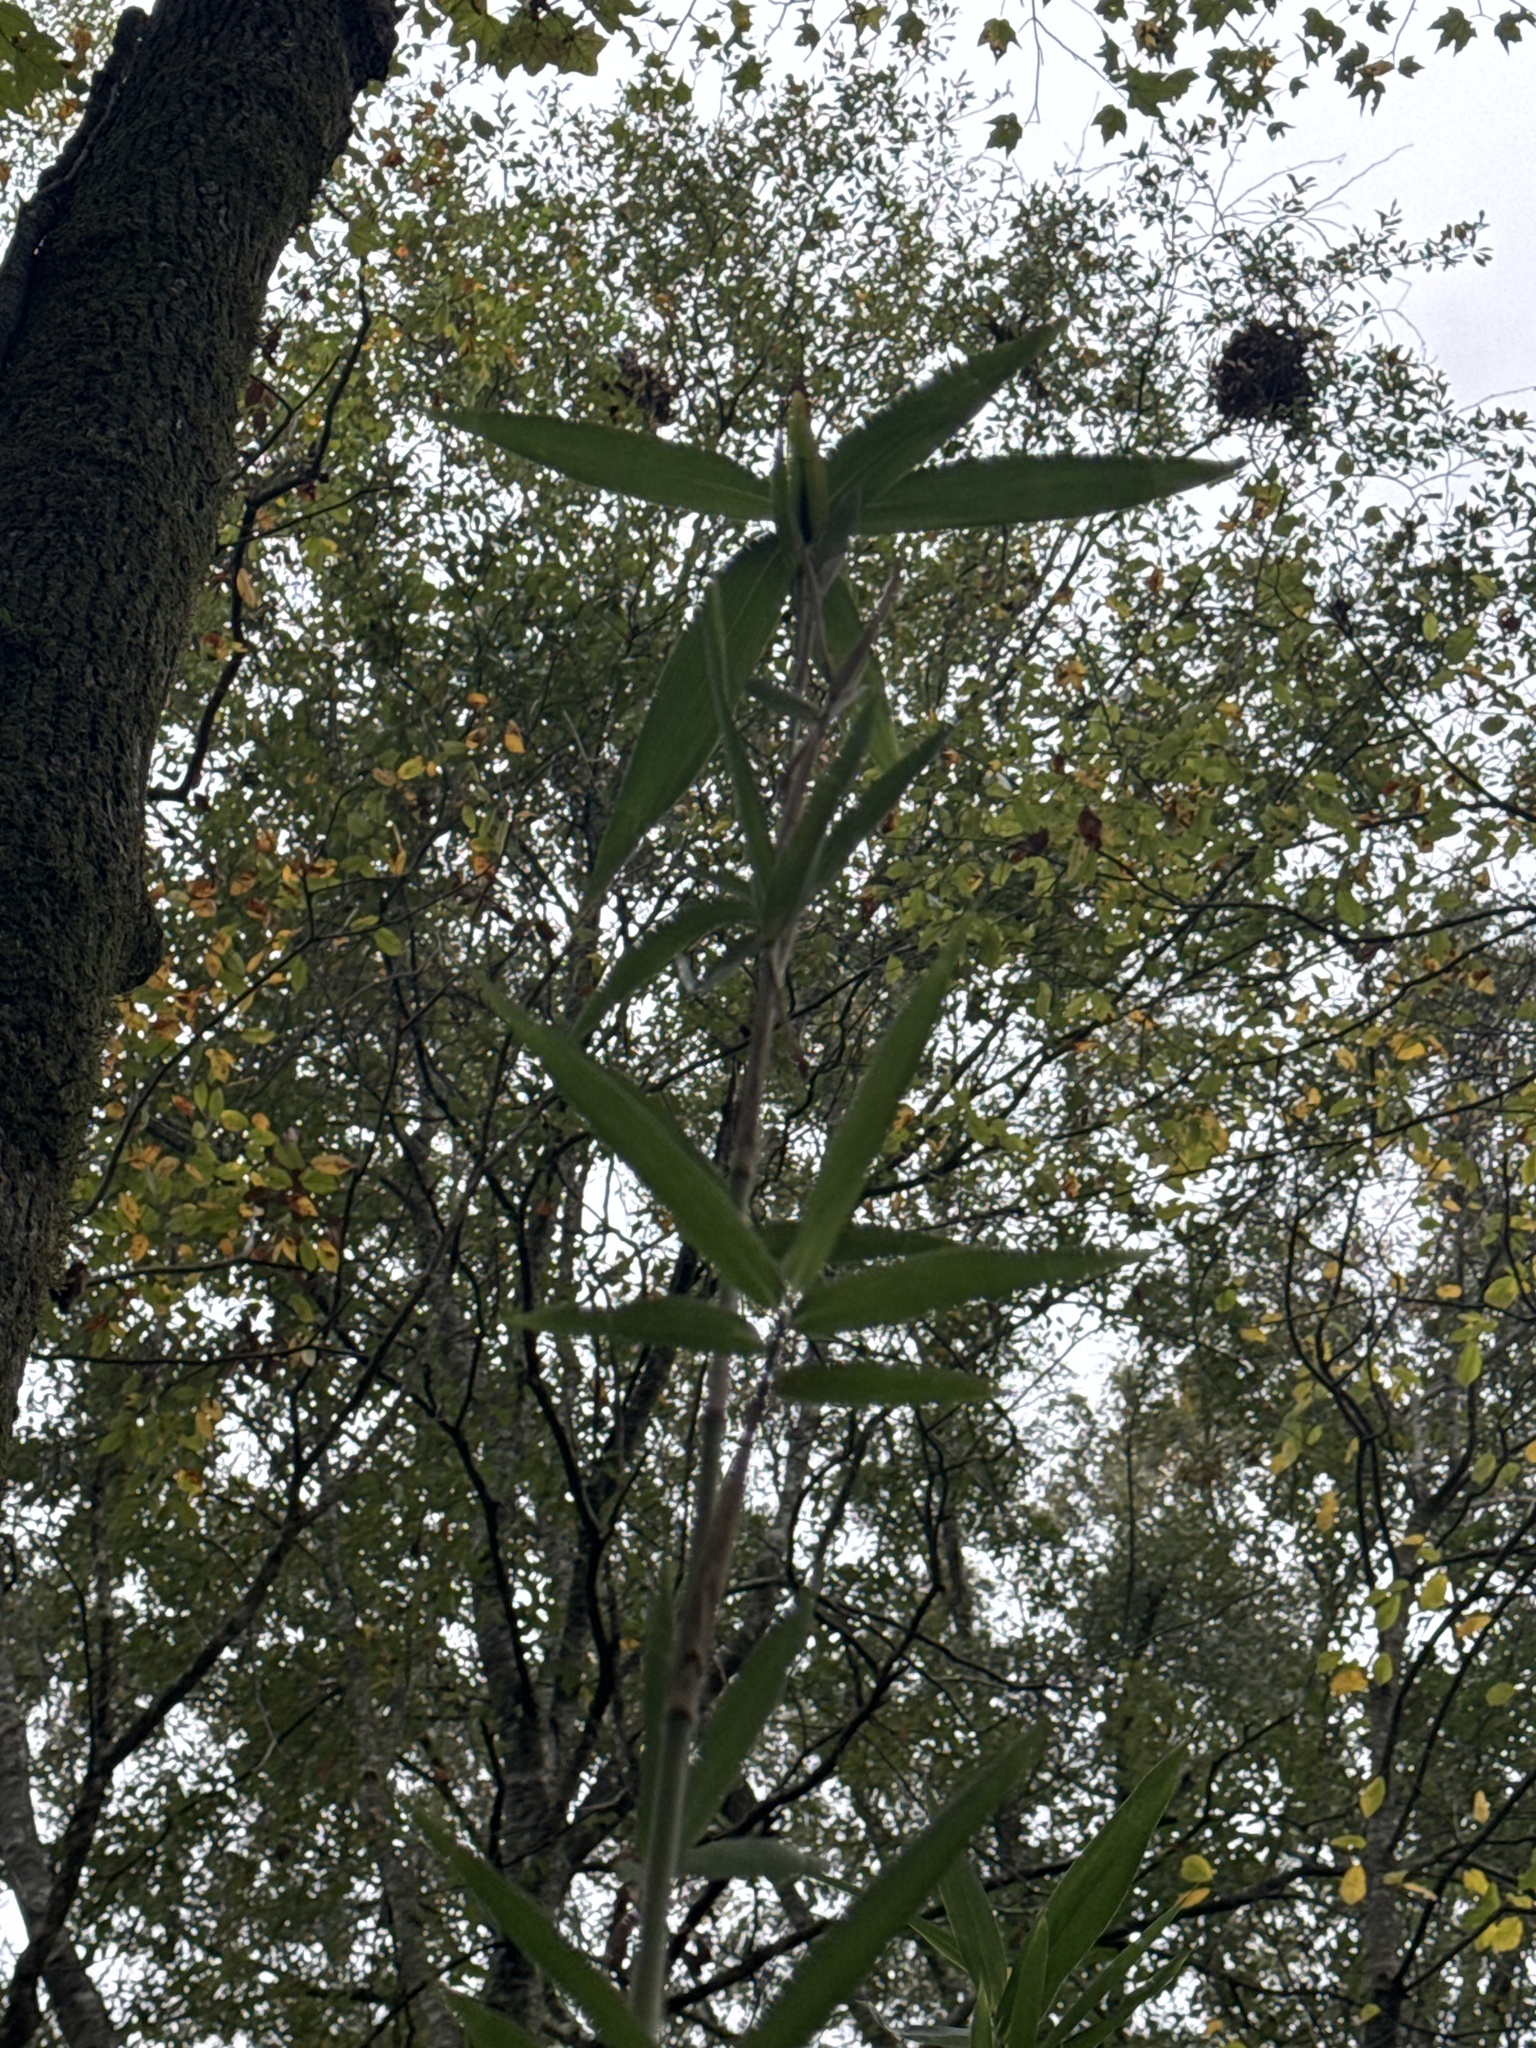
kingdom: Plantae
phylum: Tracheophyta
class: Liliopsida
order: Poales
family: Poaceae
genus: Arundinaria
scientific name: Arundinaria gigantea
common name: Giant cane
